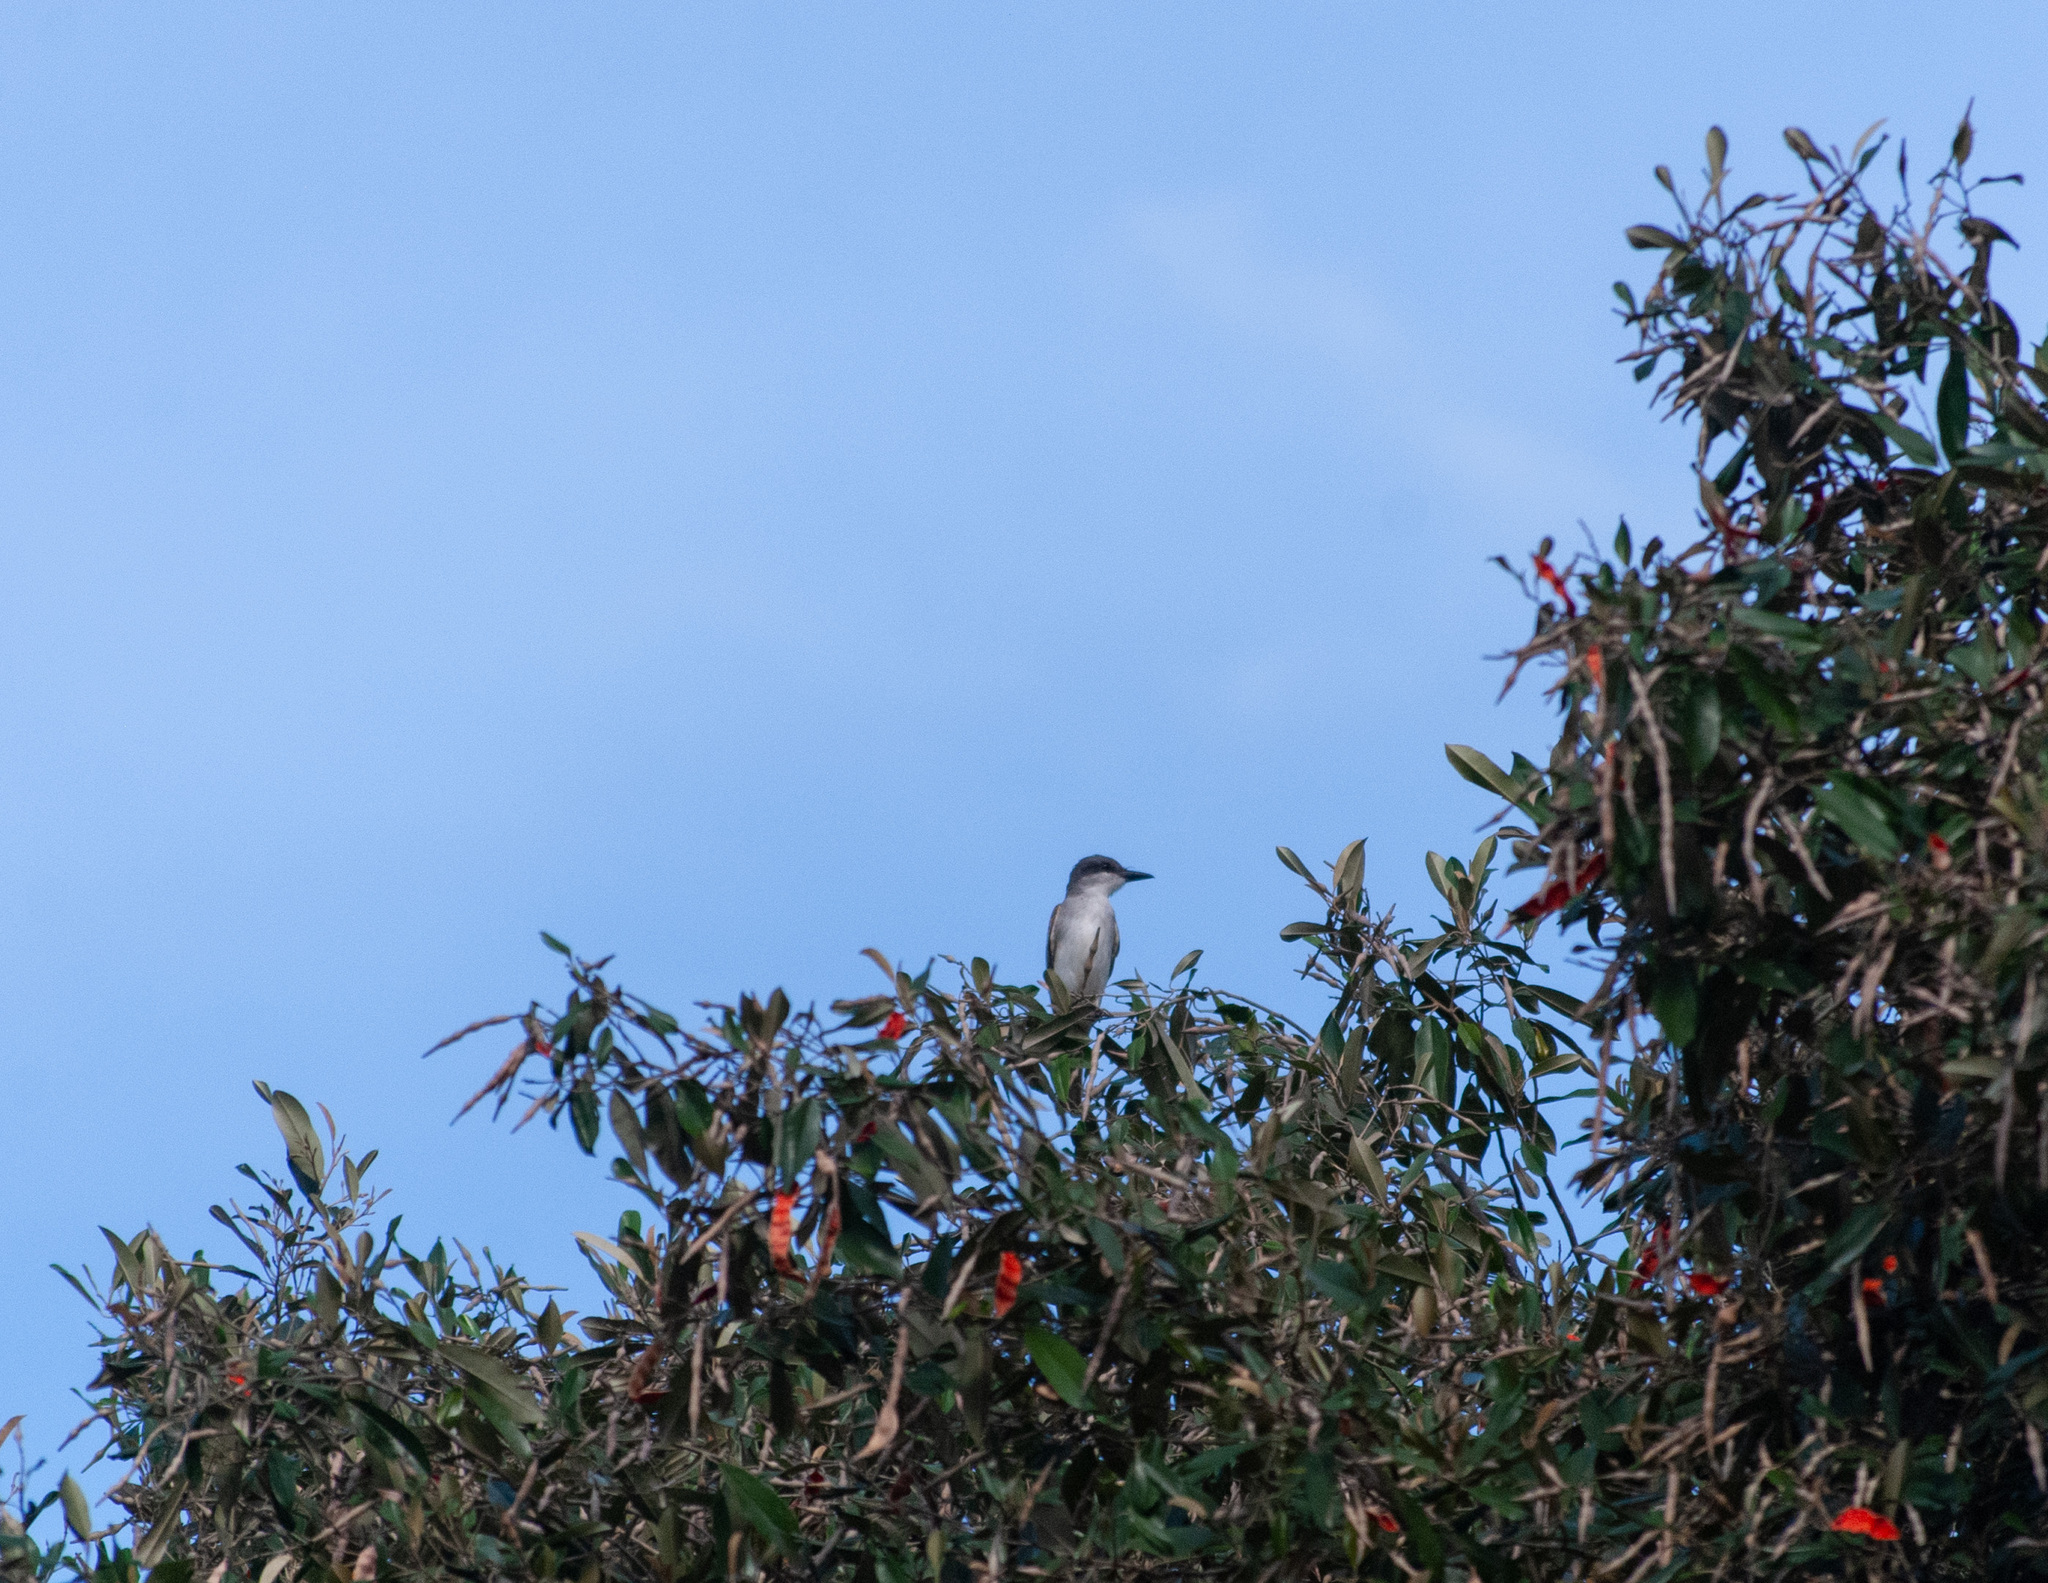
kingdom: Animalia
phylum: Chordata
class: Aves
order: Passeriformes
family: Tyrannidae
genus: Tyrannus
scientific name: Tyrannus dominicensis
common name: Gray kingbird
